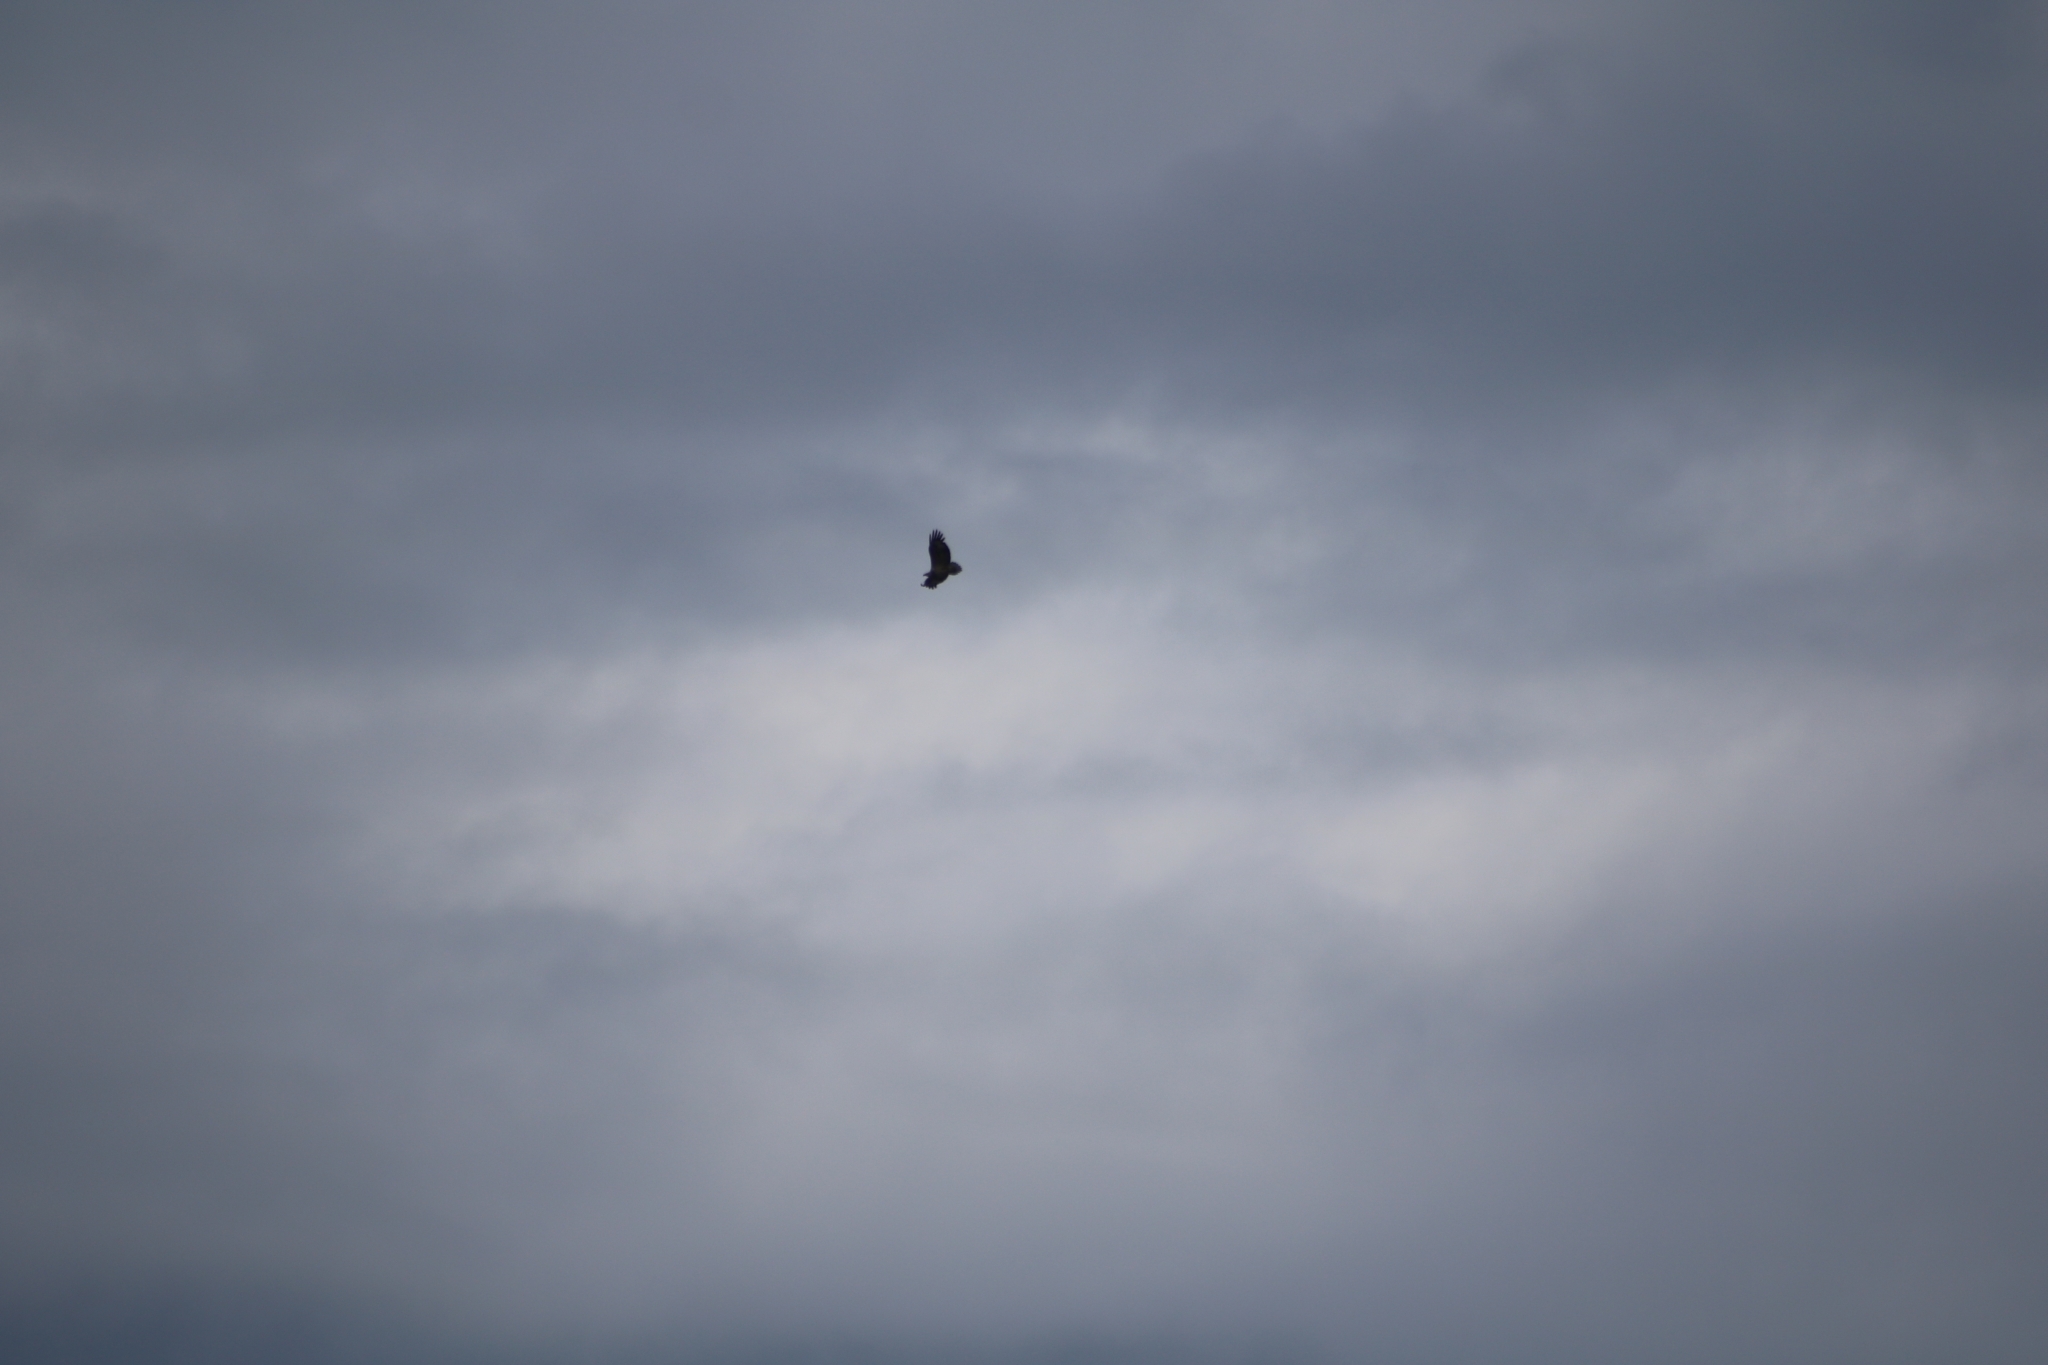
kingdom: Animalia
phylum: Chordata
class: Aves
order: Accipitriformes
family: Accipitridae
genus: Haliaeetus
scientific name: Haliaeetus leucogaster
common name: White-bellied sea eagle
